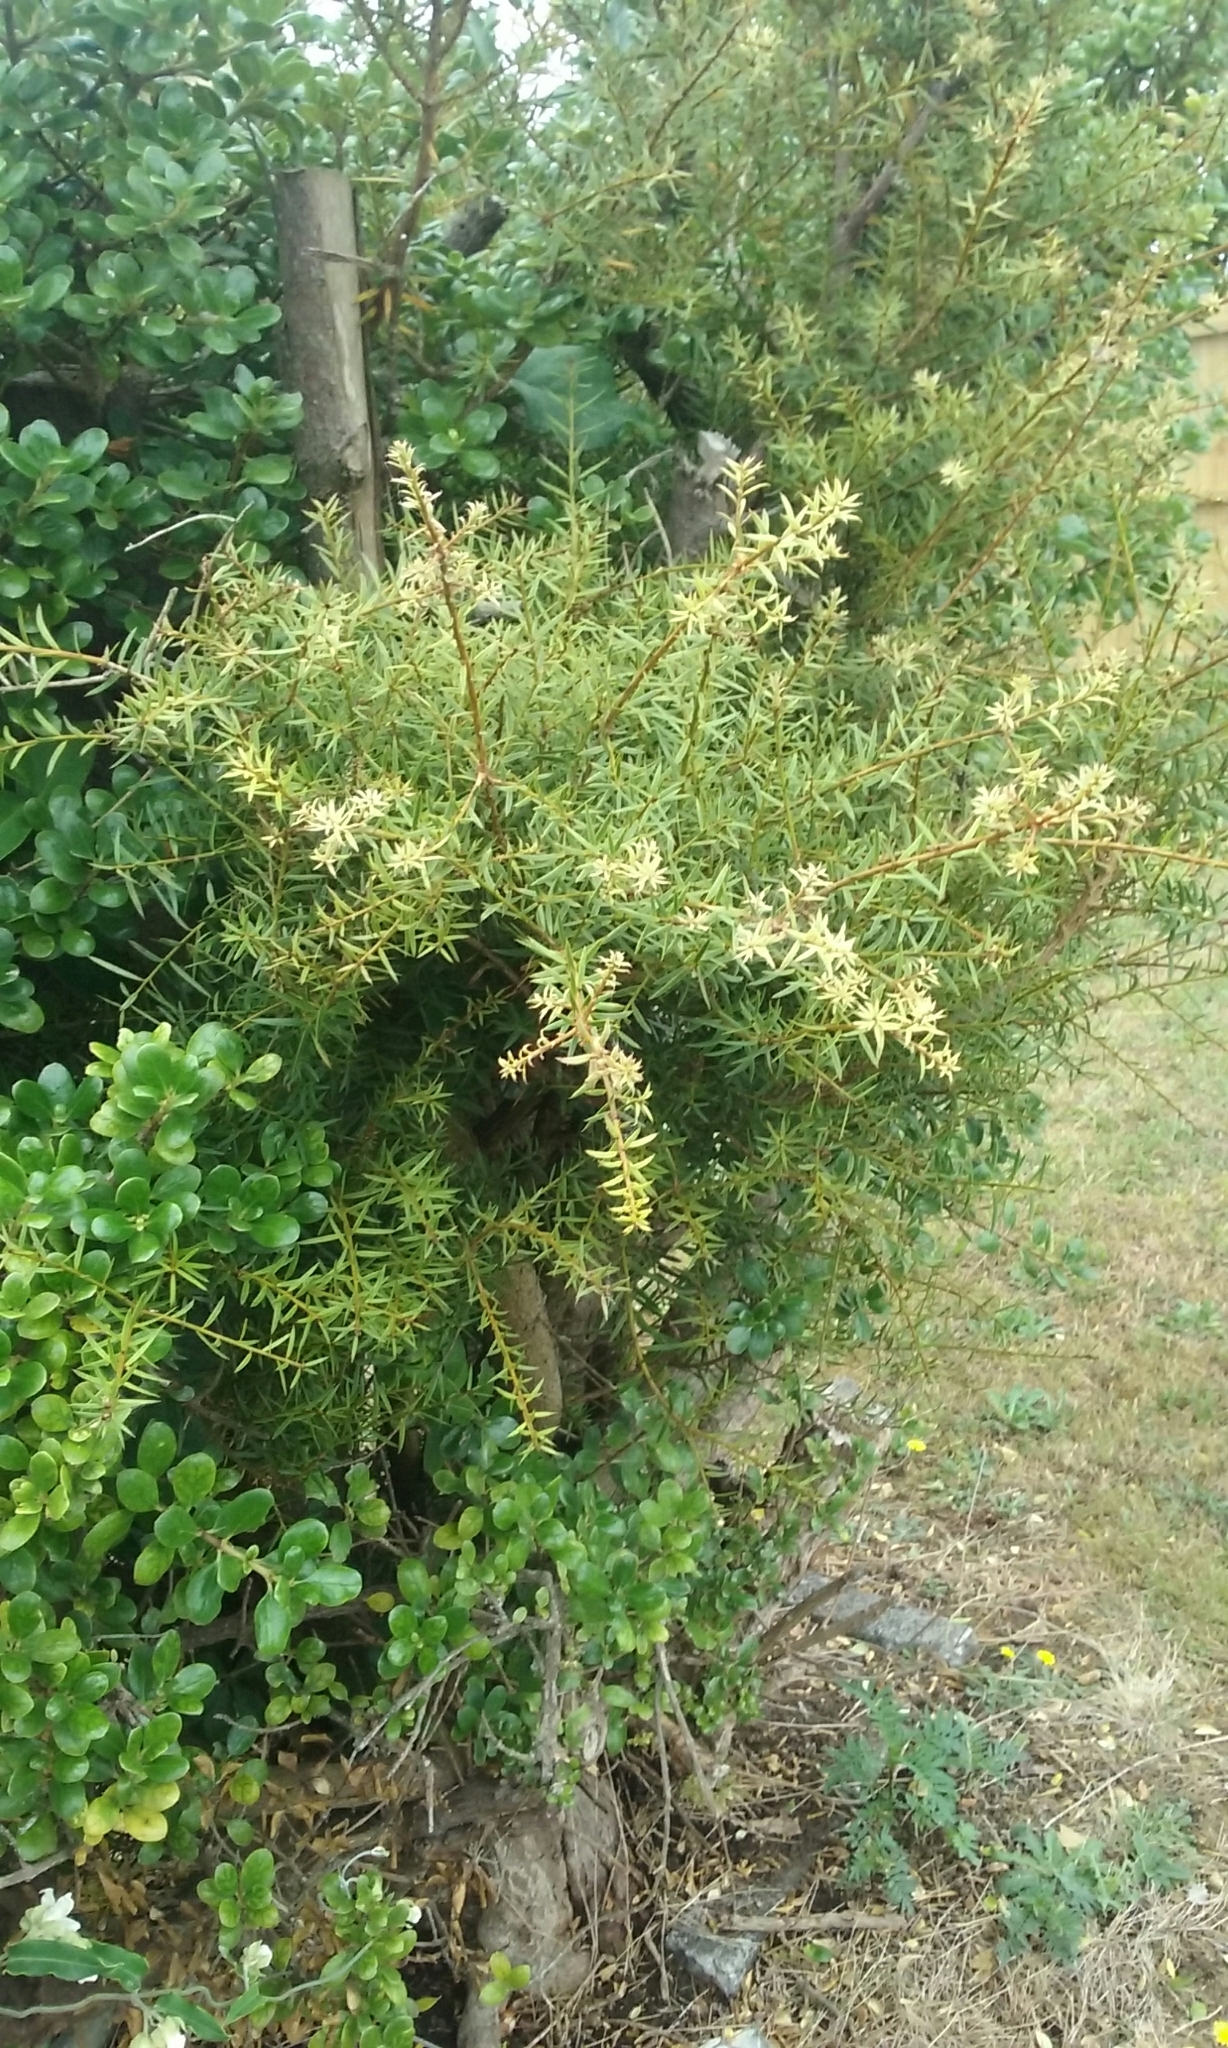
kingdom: Plantae
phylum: Tracheophyta
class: Pinopsida
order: Pinales
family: Podocarpaceae
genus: Podocarpus
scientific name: Podocarpus totara
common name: Totara
